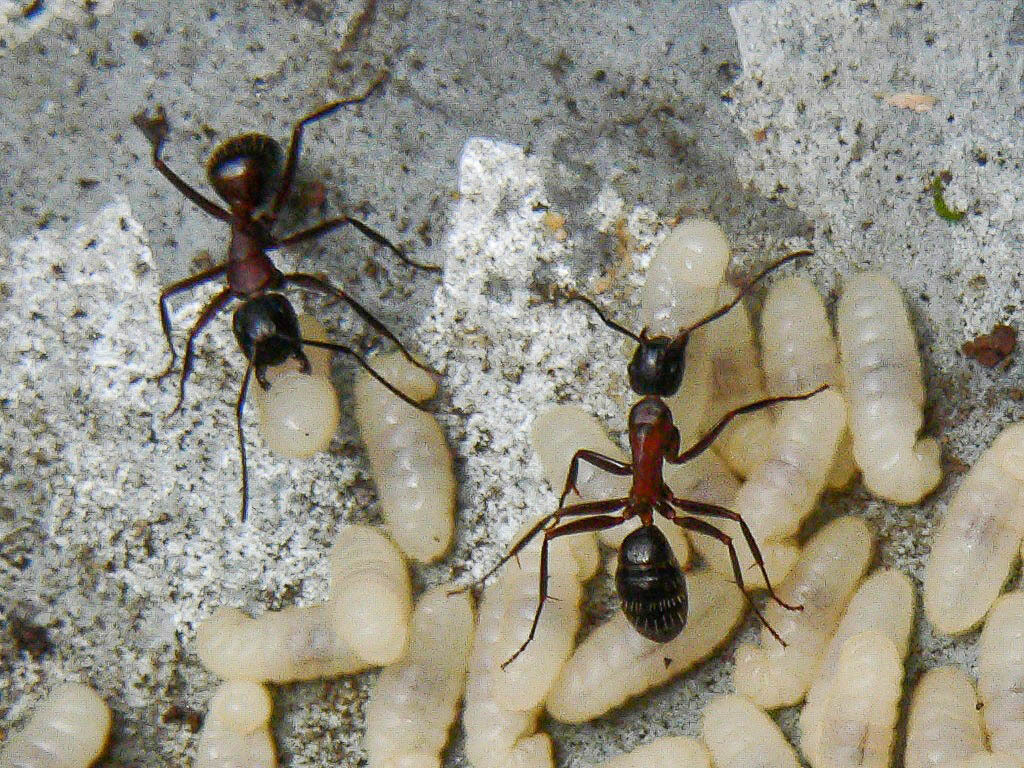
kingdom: Animalia
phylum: Arthropoda
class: Insecta
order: Hymenoptera
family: Formicidae
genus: Camponotus
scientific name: Camponotus ligniperdus
